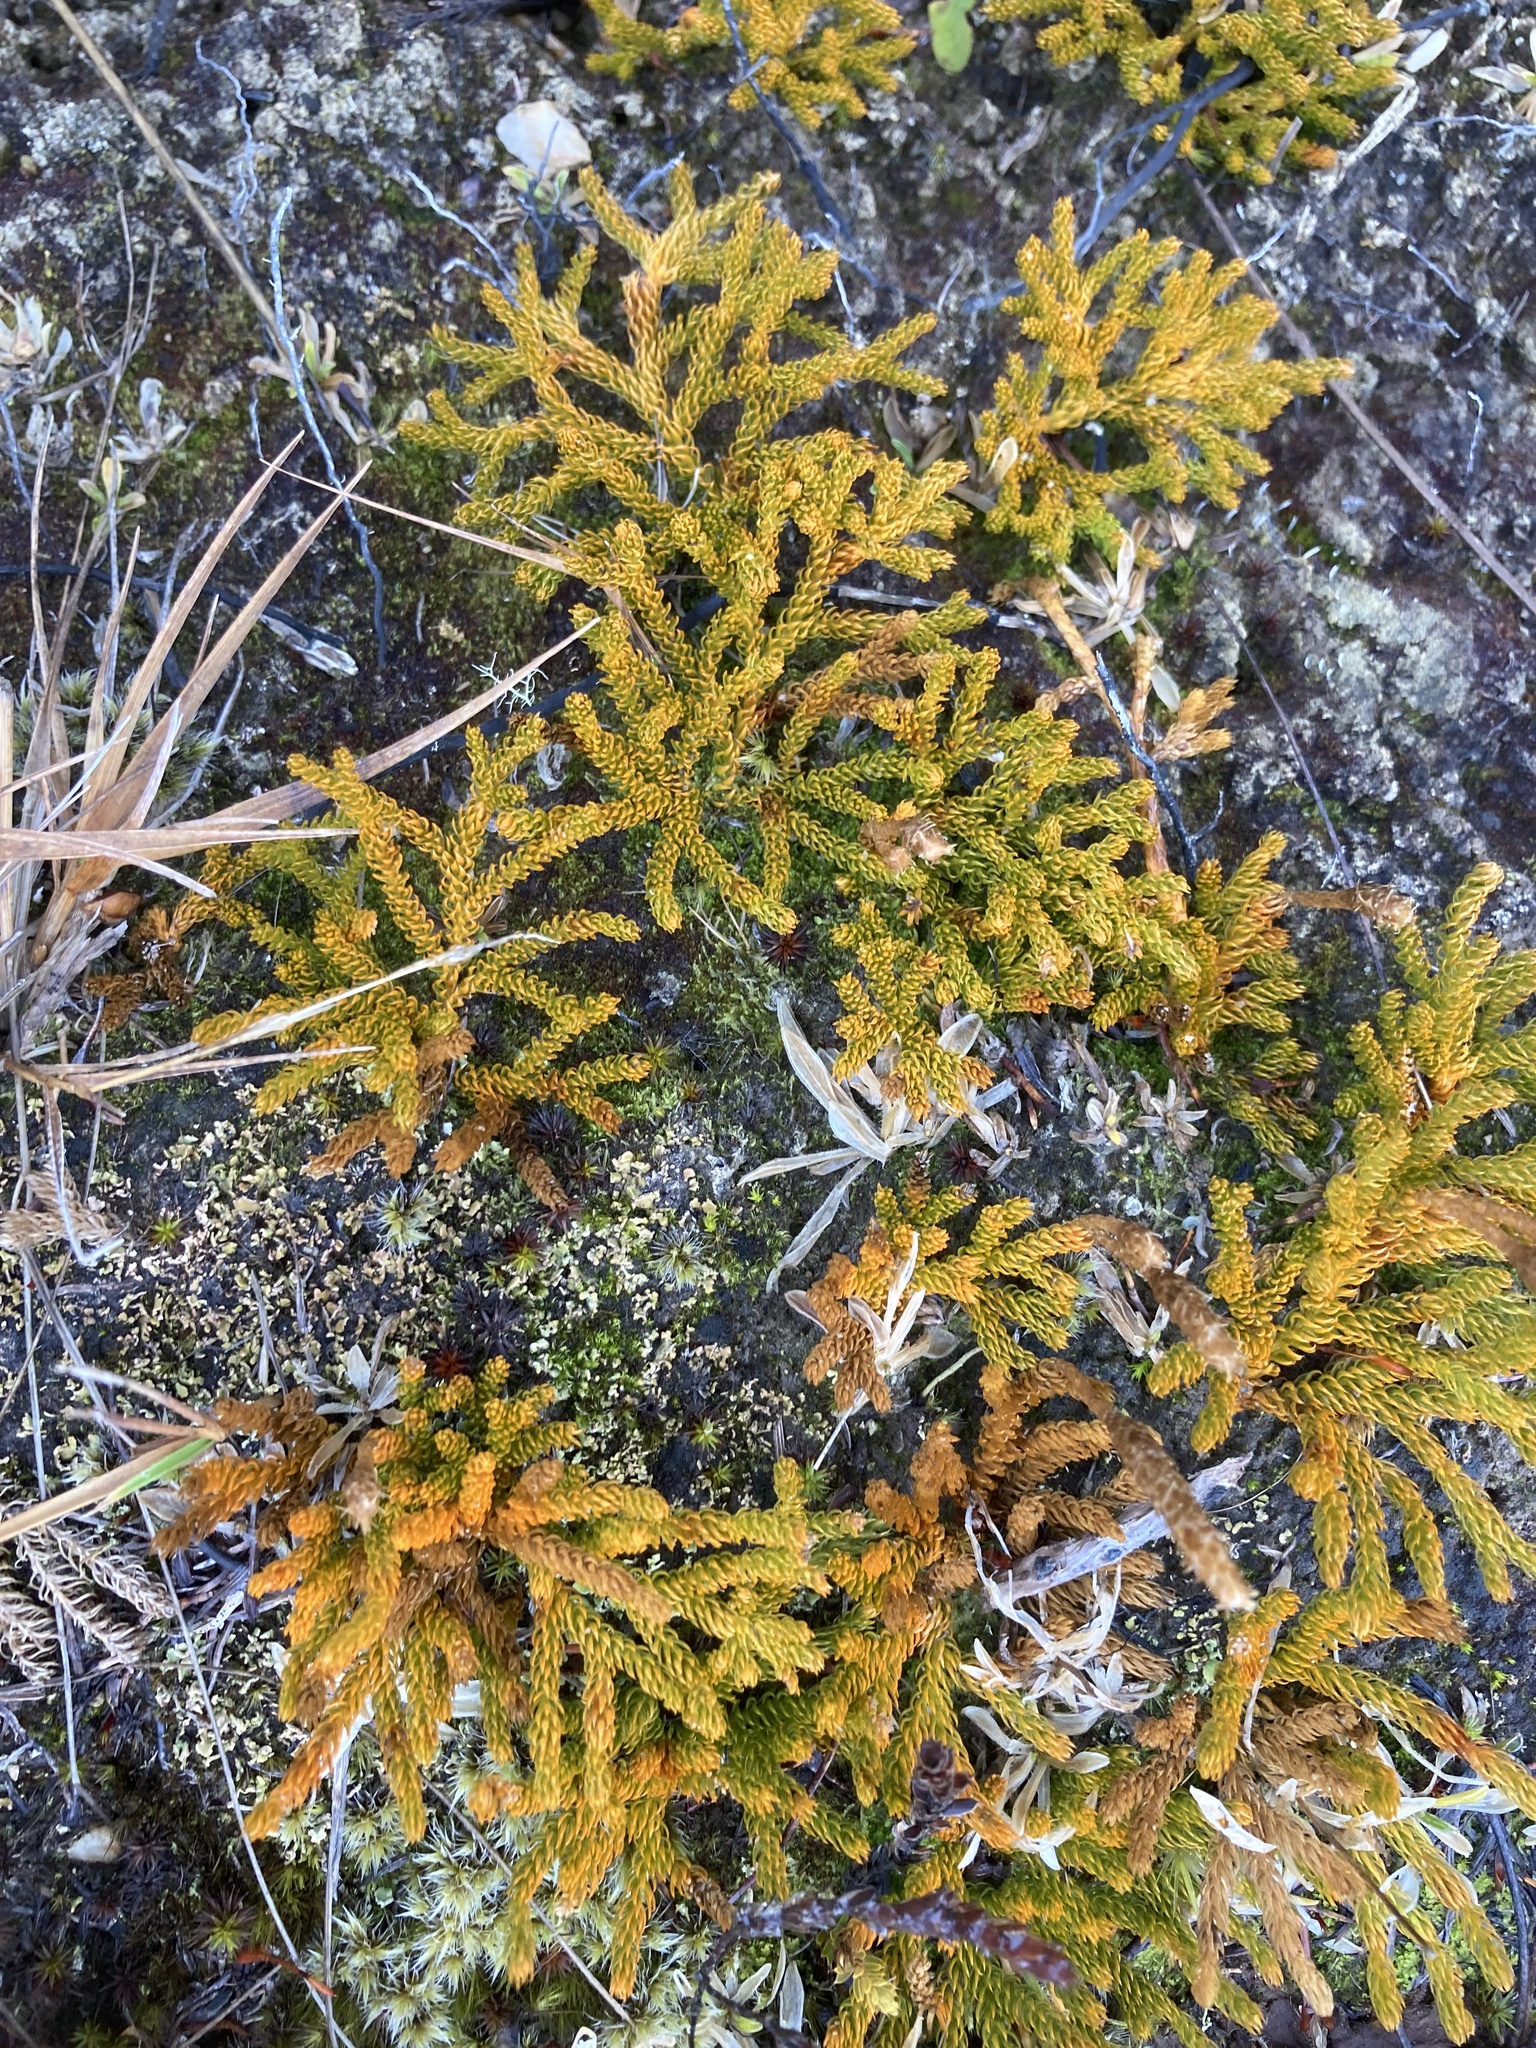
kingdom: Plantae
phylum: Tracheophyta
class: Lycopodiopsida
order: Lycopodiales
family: Lycopodiaceae
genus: Austrolycopodium
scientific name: Austrolycopodium fastigiatum
